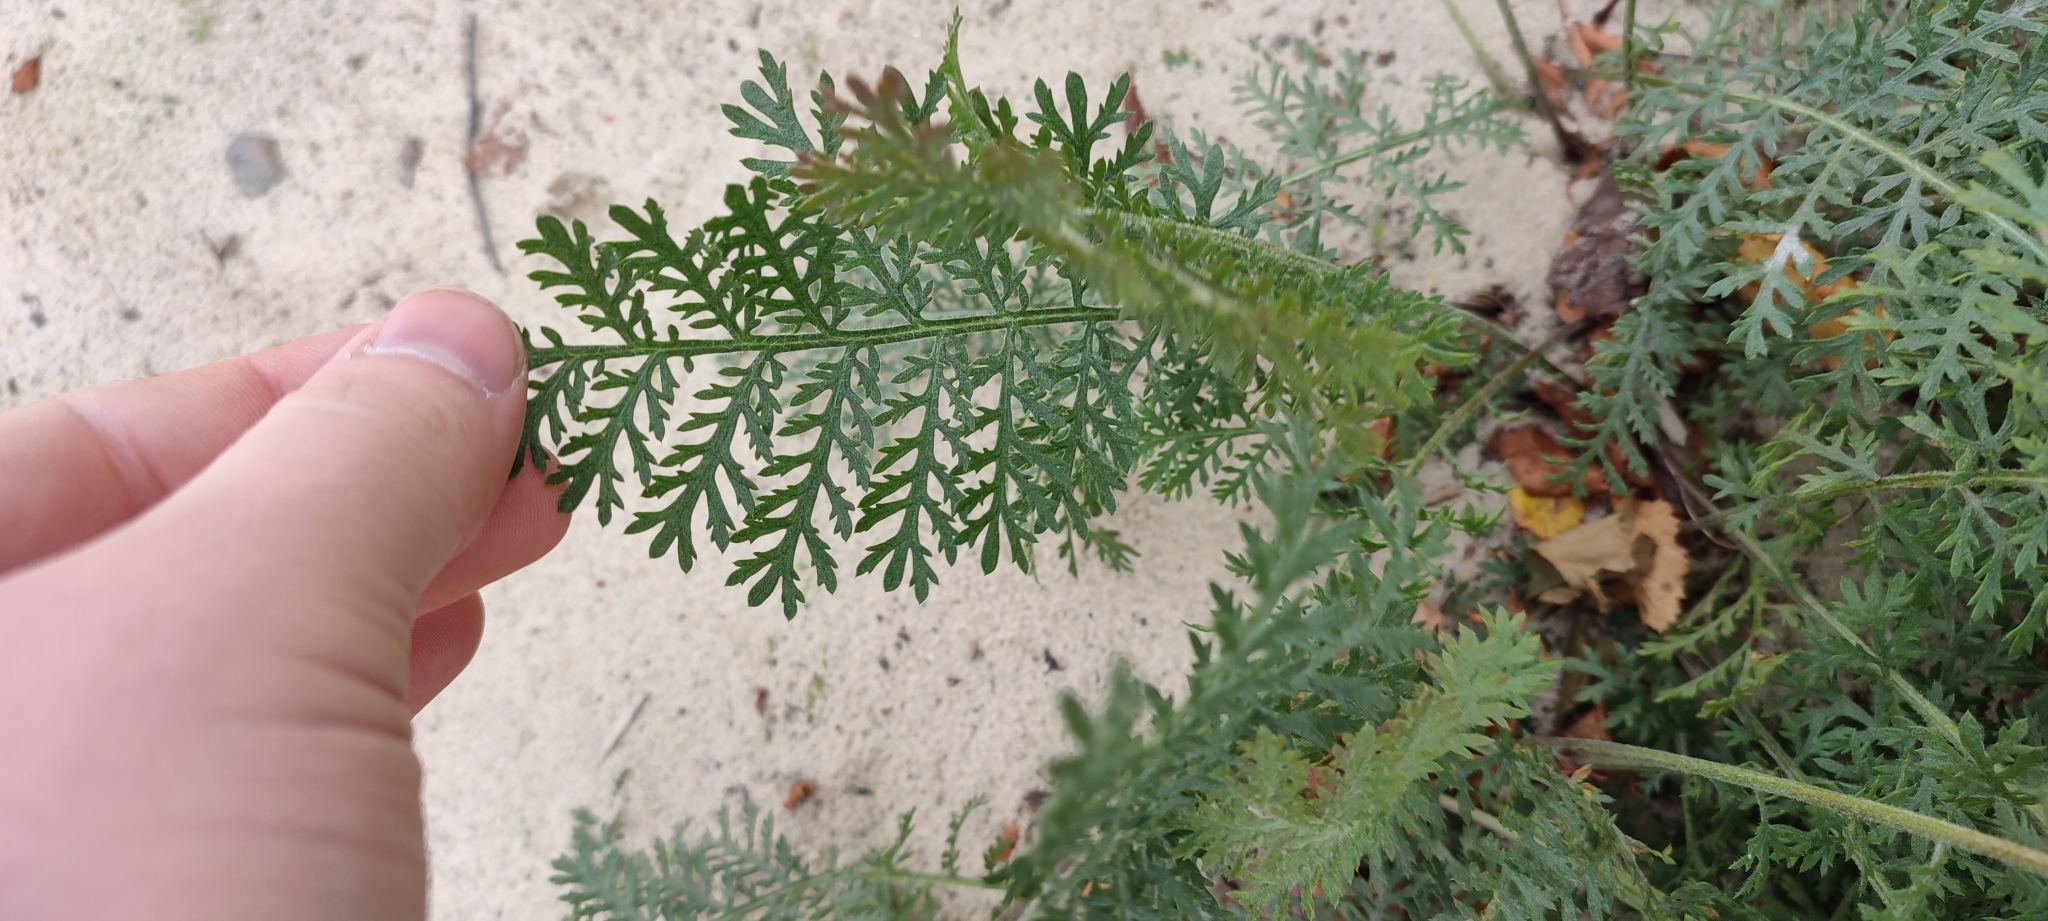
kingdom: Plantae
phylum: Tracheophyta
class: Magnoliopsida
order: Asterales
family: Asteraceae
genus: Tanacetum
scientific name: Tanacetum bipinnatum
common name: Dwarf tansy
